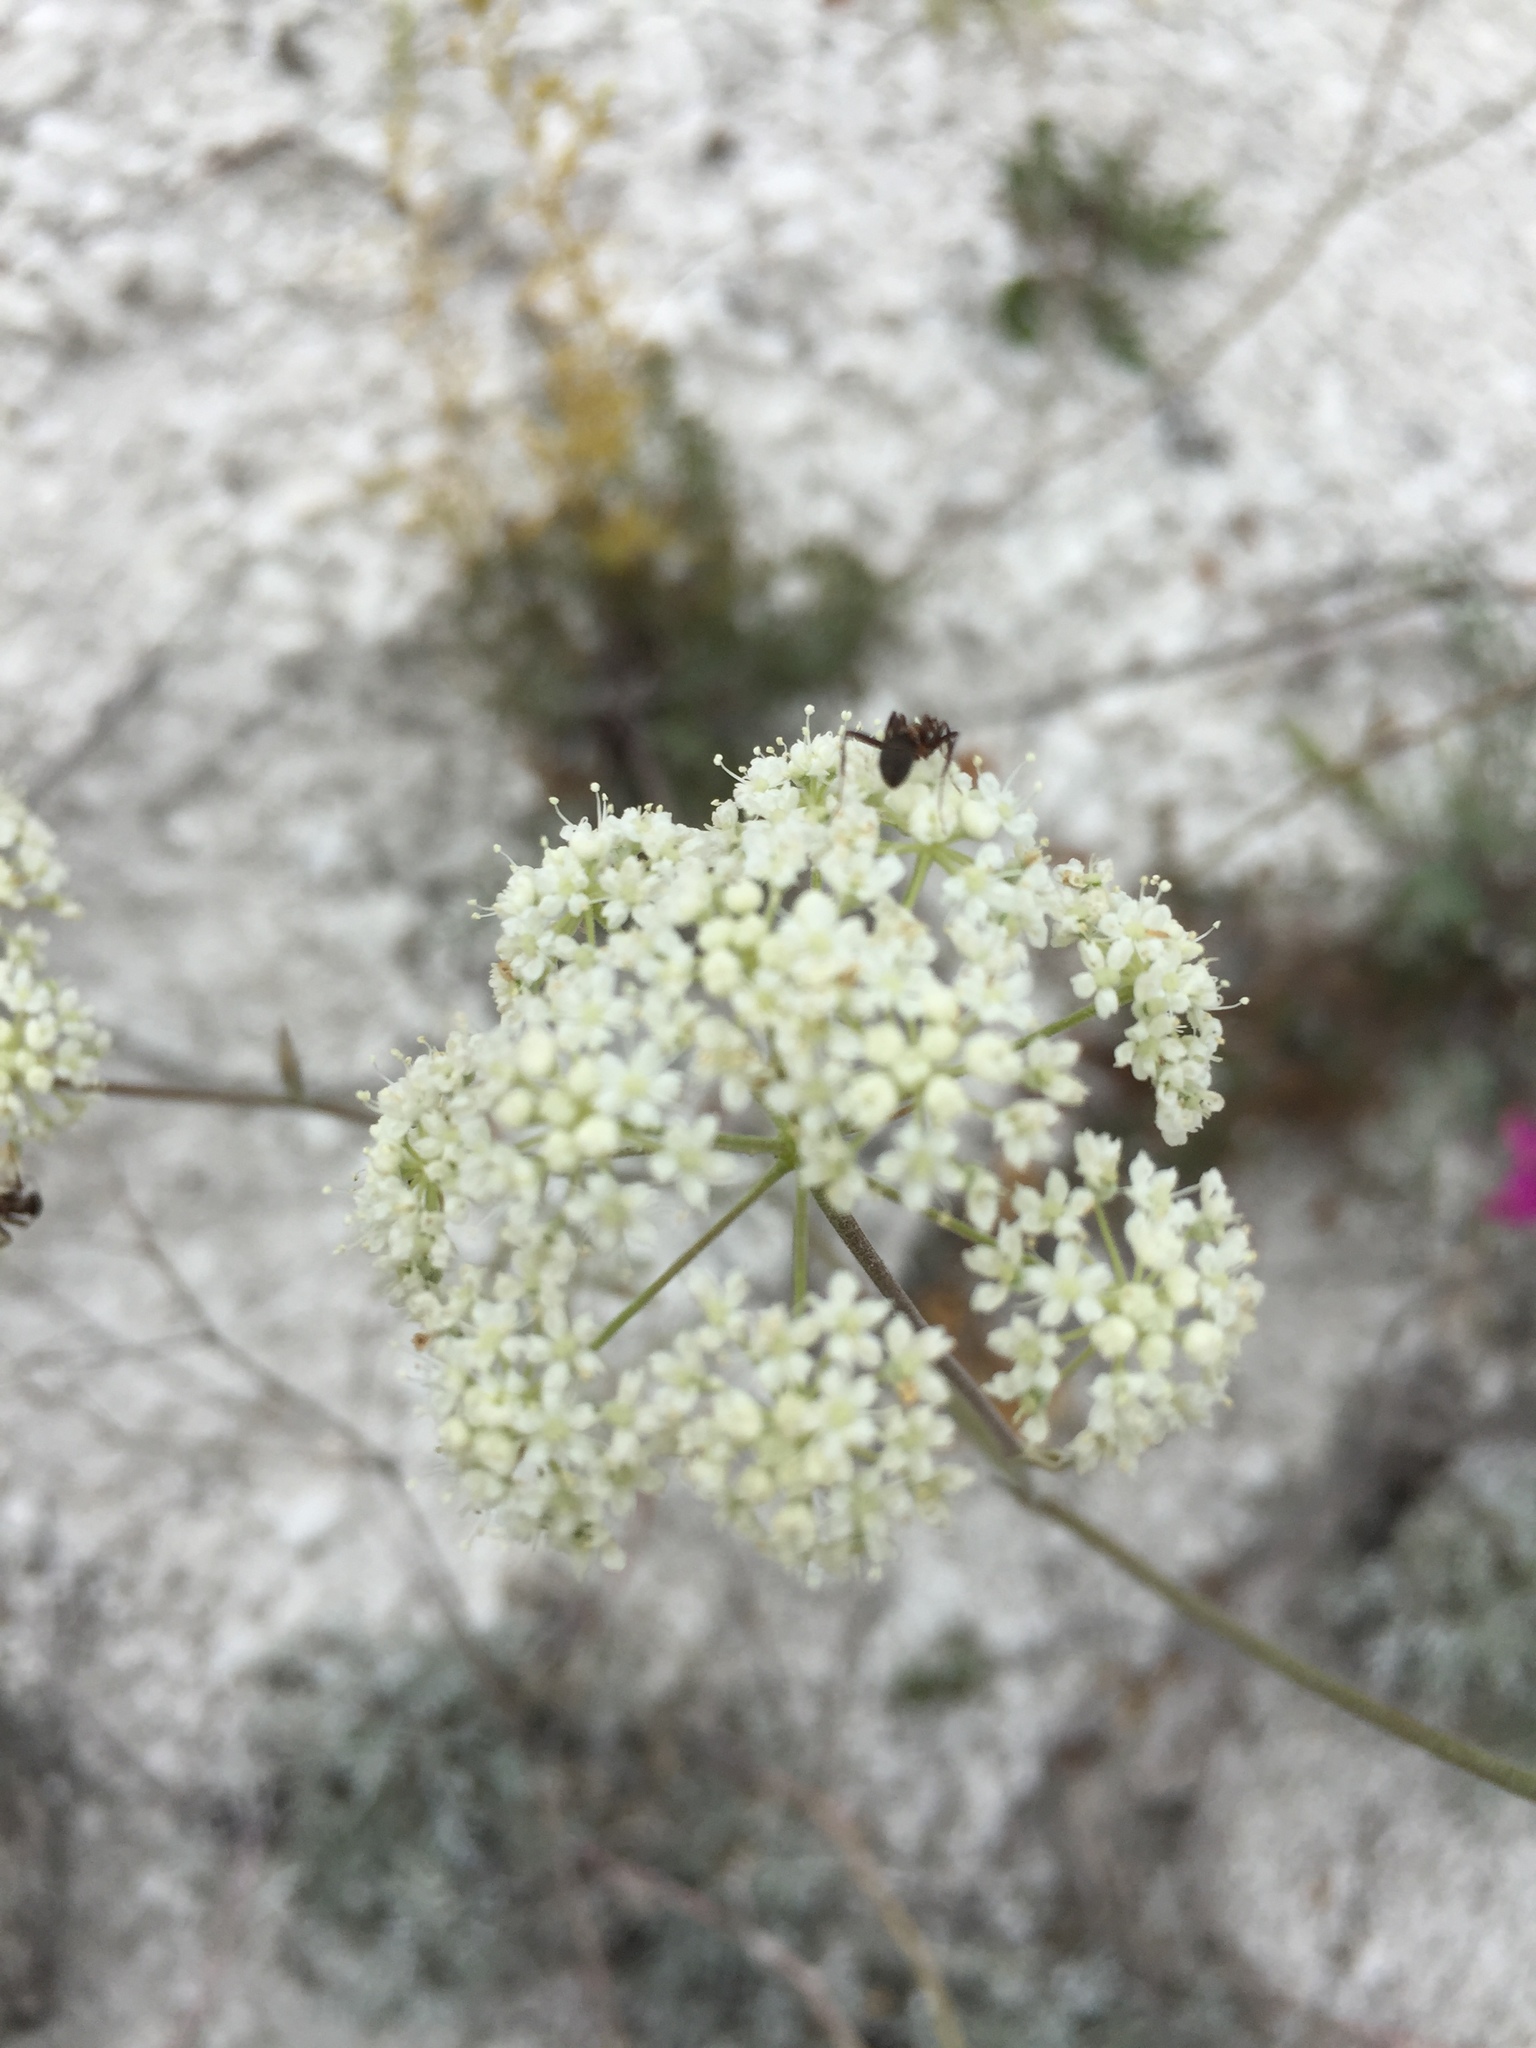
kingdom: Plantae
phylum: Tracheophyta
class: Magnoliopsida
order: Apiales
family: Apiaceae
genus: Pimpinella
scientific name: Pimpinella tragium
